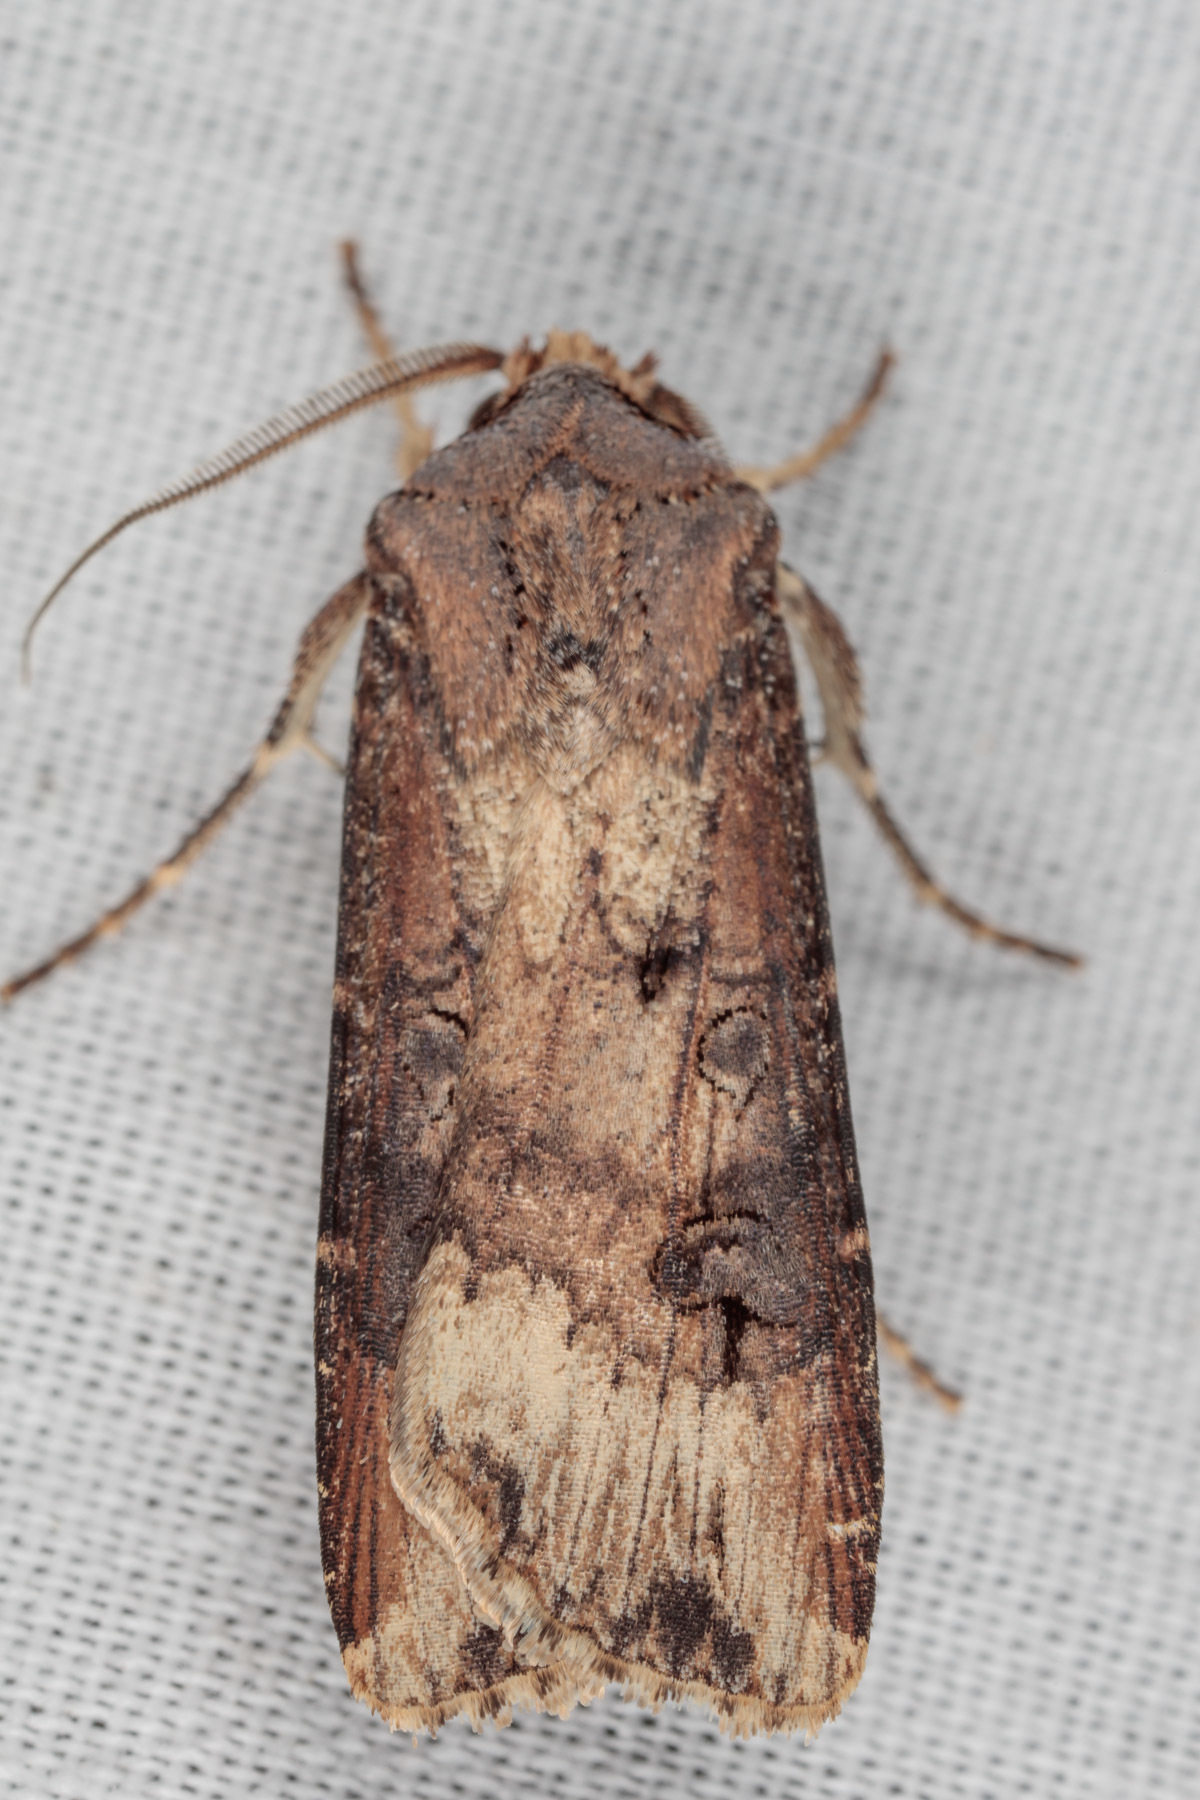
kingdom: Animalia
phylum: Arthropoda
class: Insecta
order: Lepidoptera
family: Noctuidae
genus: Agrotis
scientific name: Agrotis ipsilon
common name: Dark sword-grass
